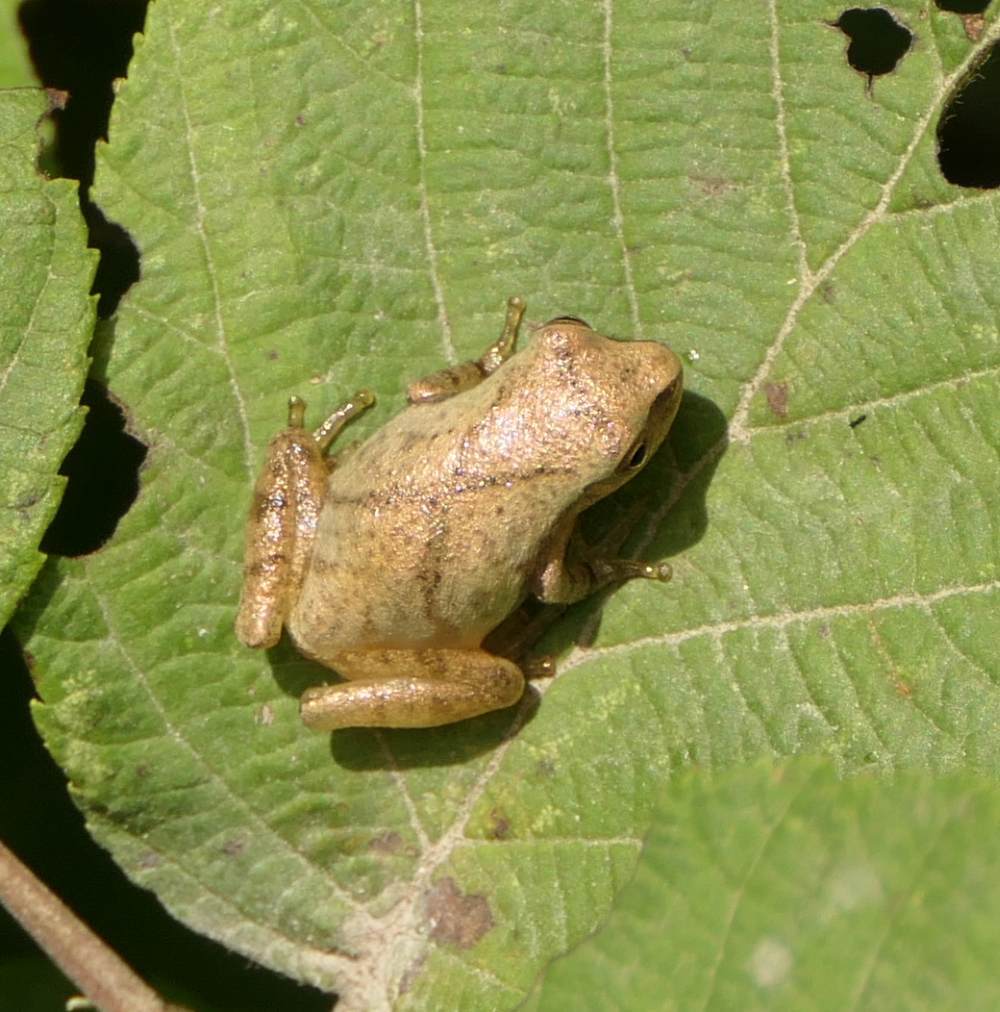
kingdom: Animalia
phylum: Chordata
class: Amphibia
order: Anura
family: Hylidae
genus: Pseudacris
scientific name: Pseudacris crucifer
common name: Spring peeper
